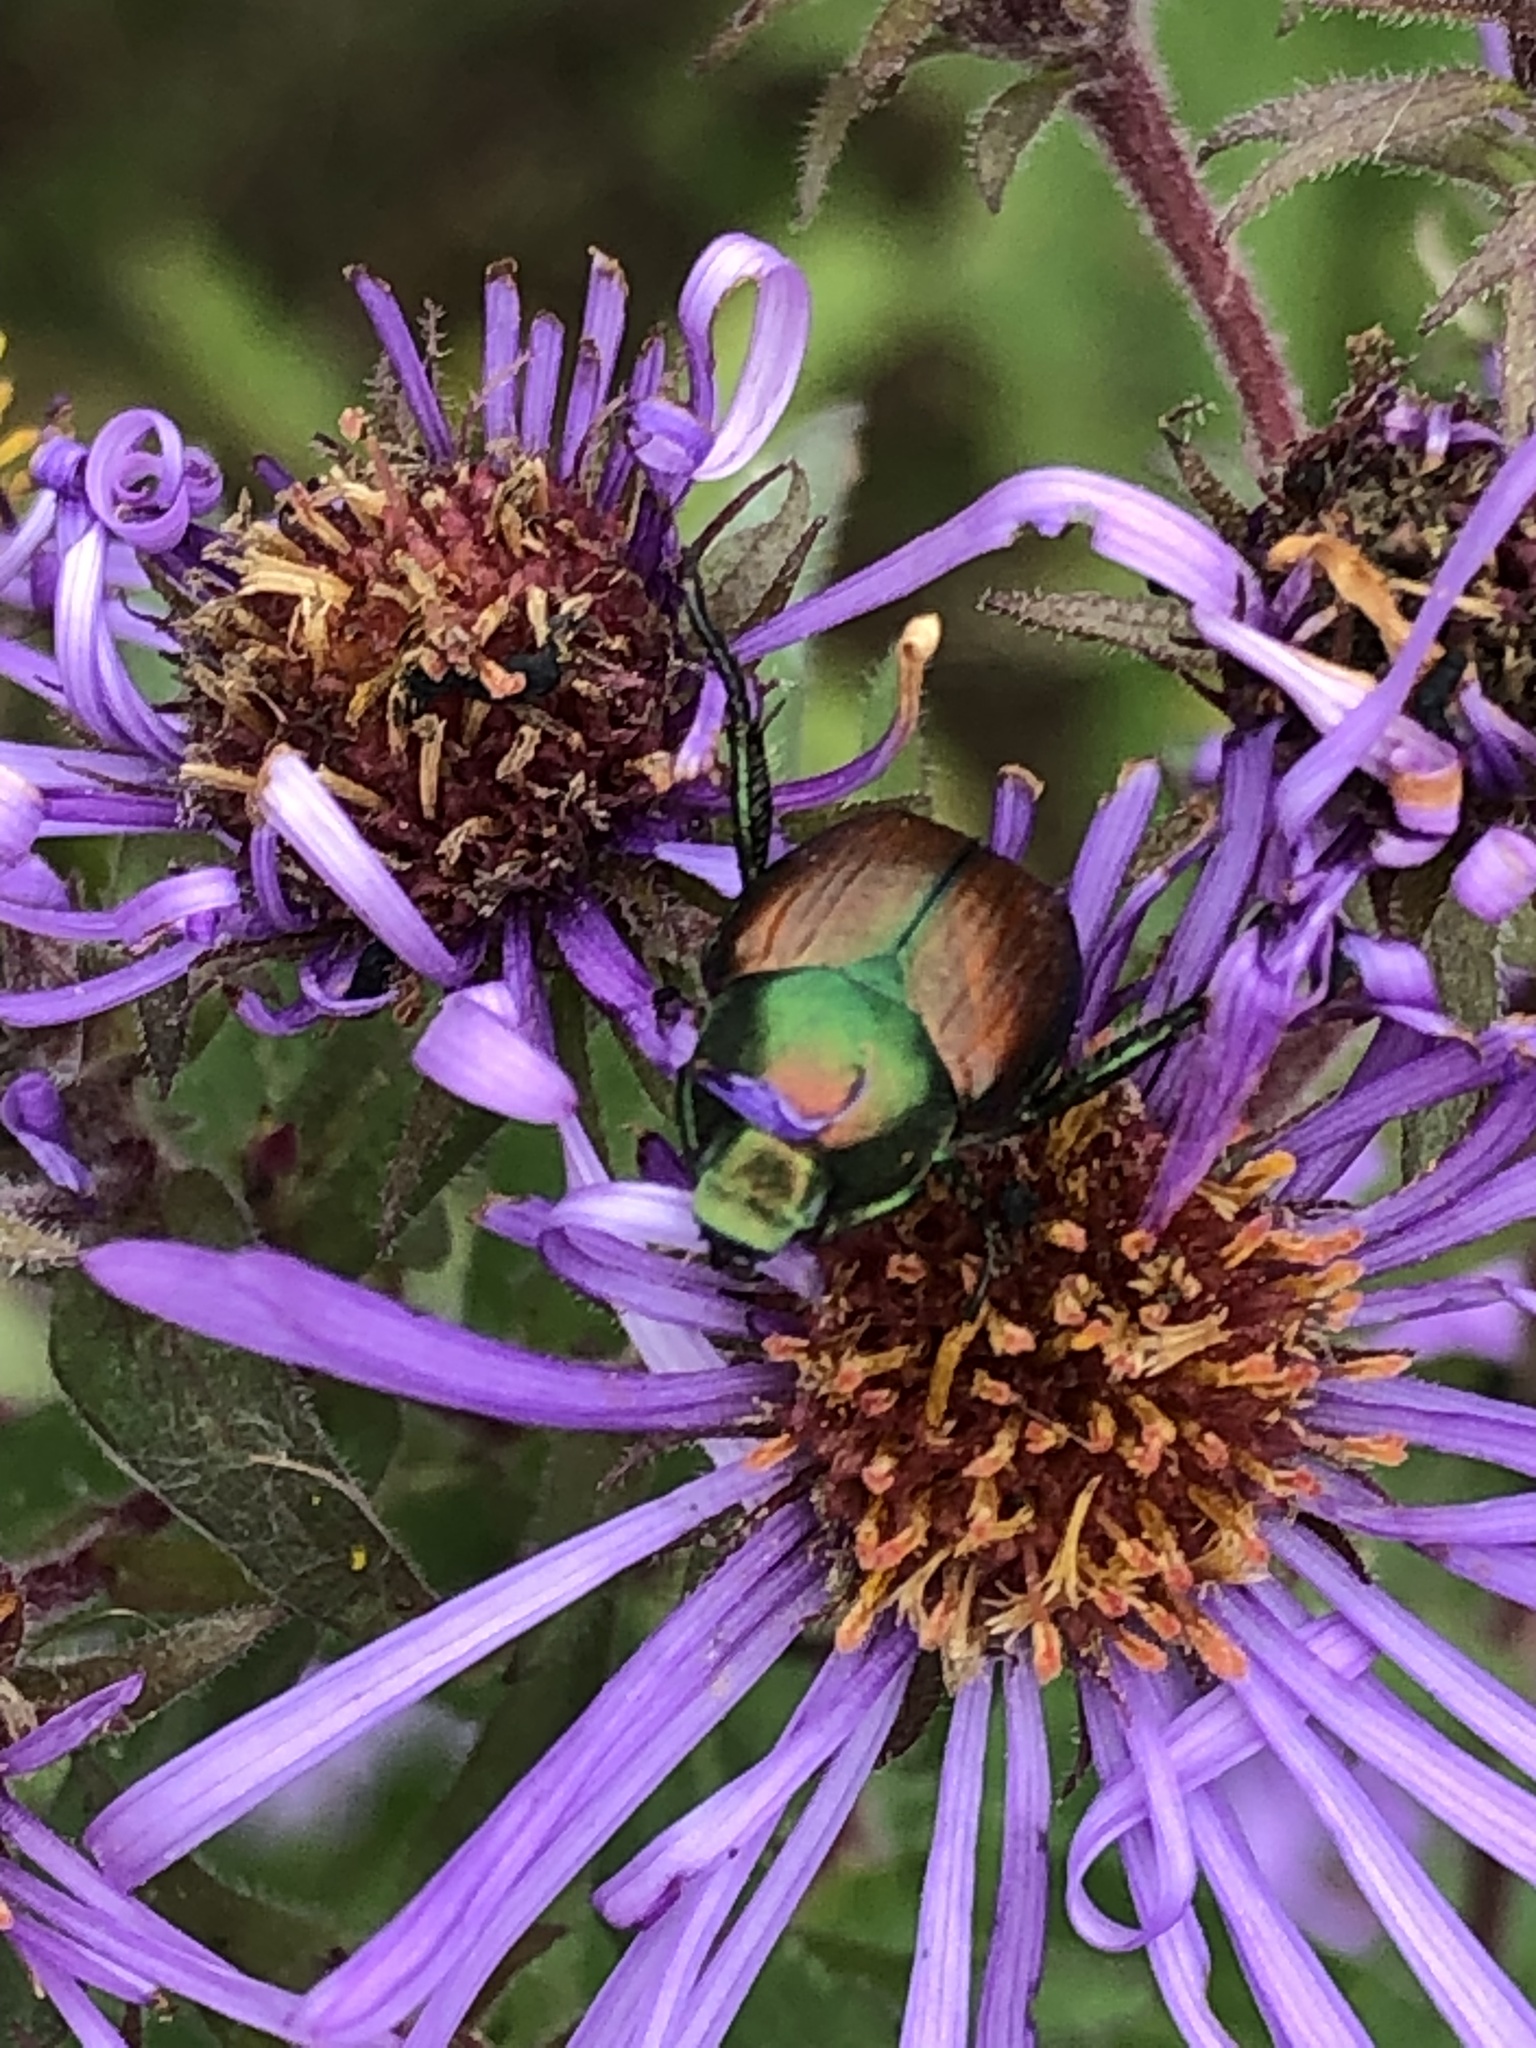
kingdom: Animalia
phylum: Arthropoda
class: Insecta
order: Coleoptera
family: Scarabaeidae
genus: Popillia
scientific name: Popillia japonica
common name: Japanese beetle
